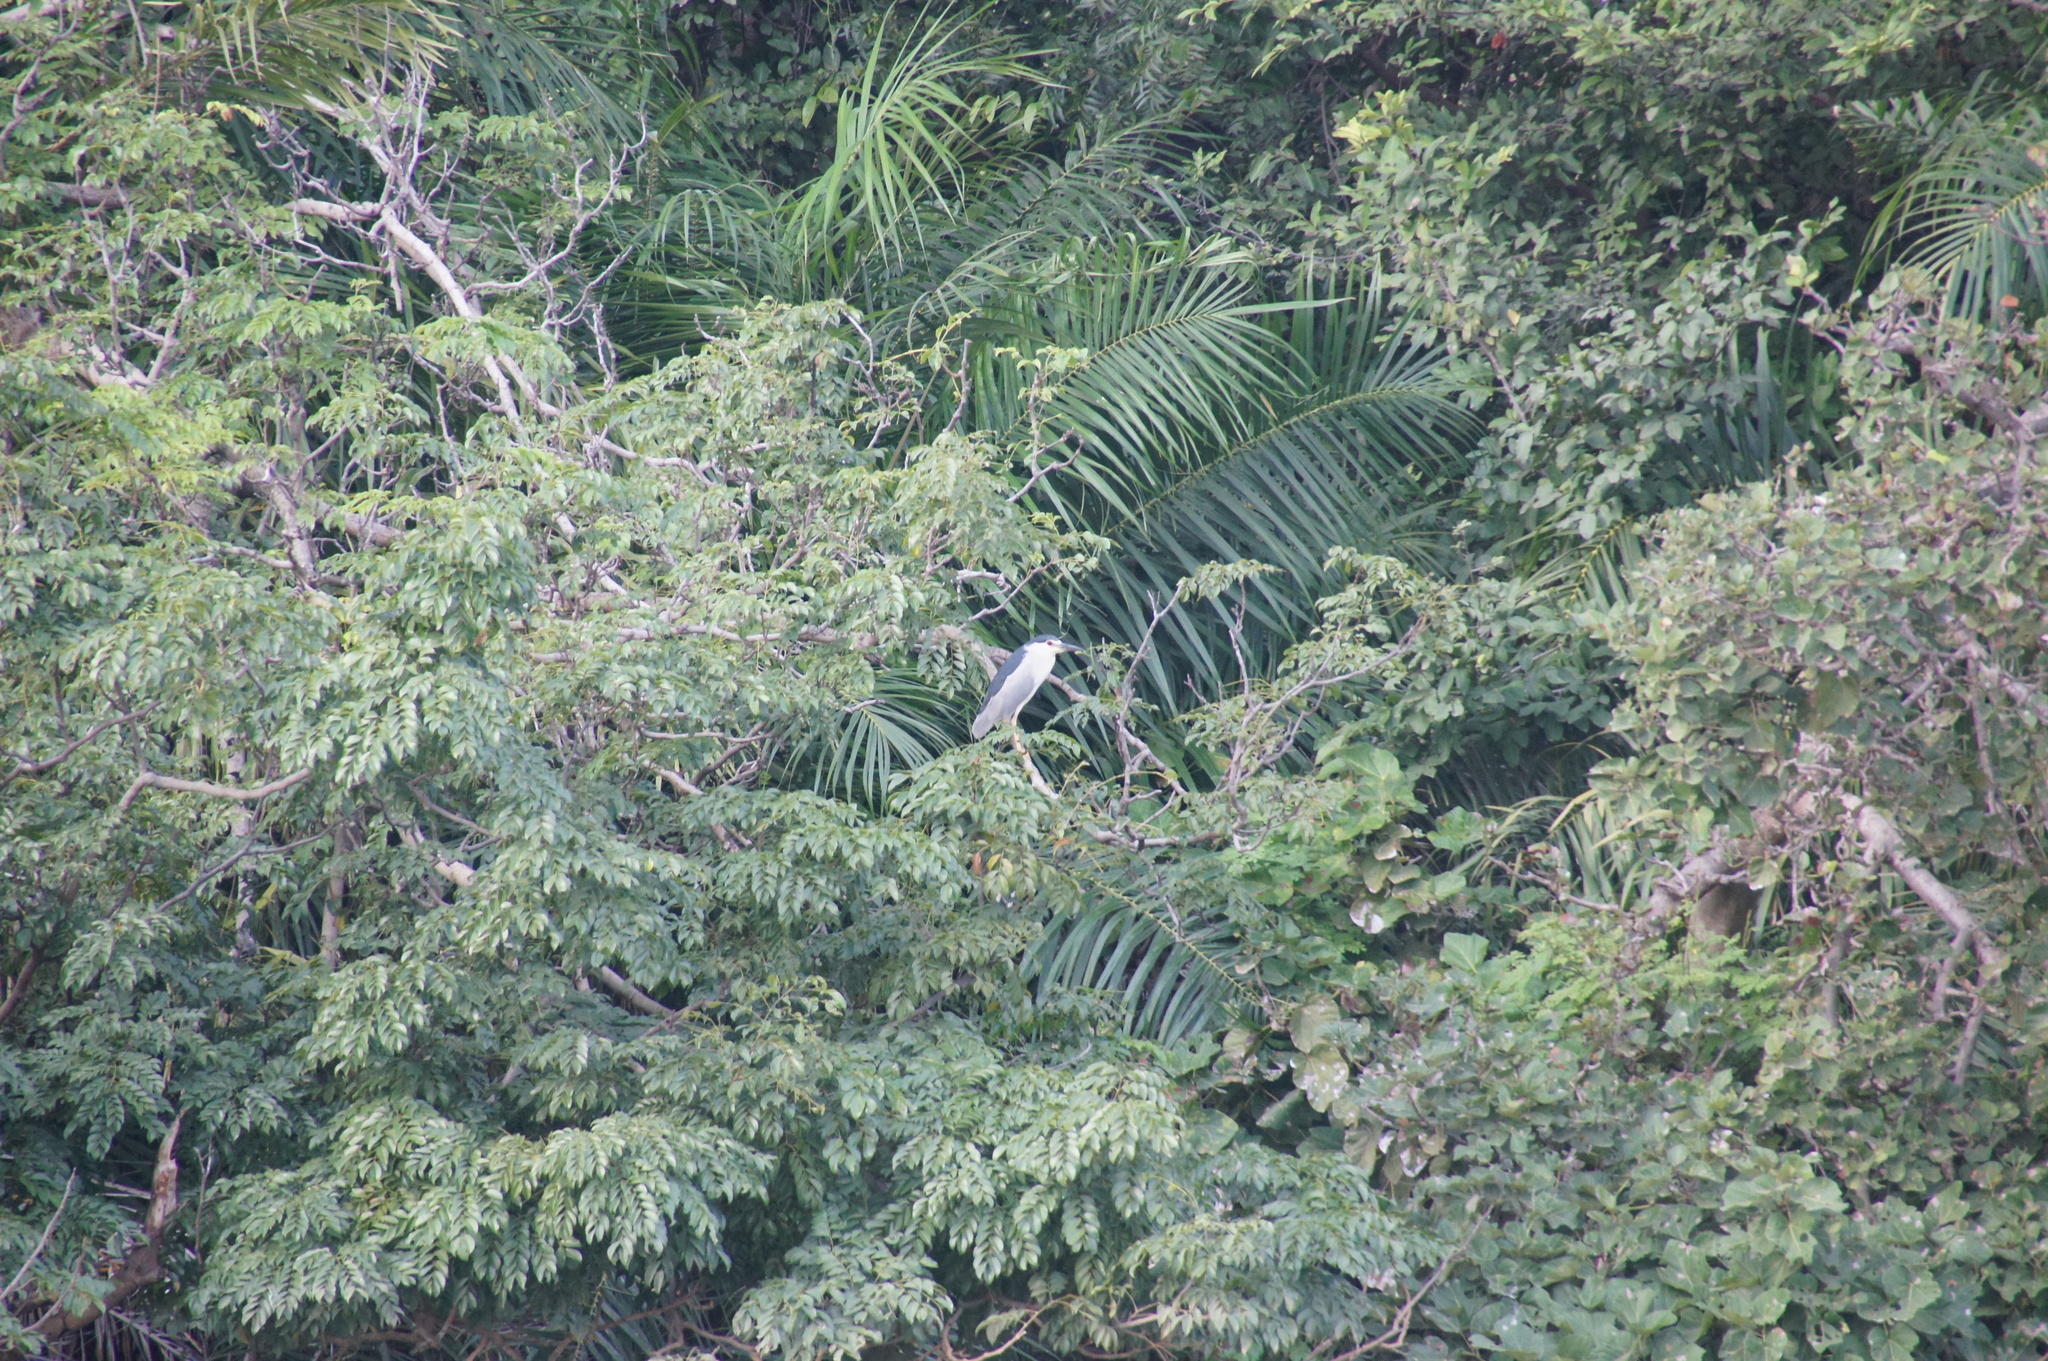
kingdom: Animalia
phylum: Chordata
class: Aves
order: Pelecaniformes
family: Ardeidae
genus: Nycticorax
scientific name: Nycticorax nycticorax
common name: Black-crowned night heron
